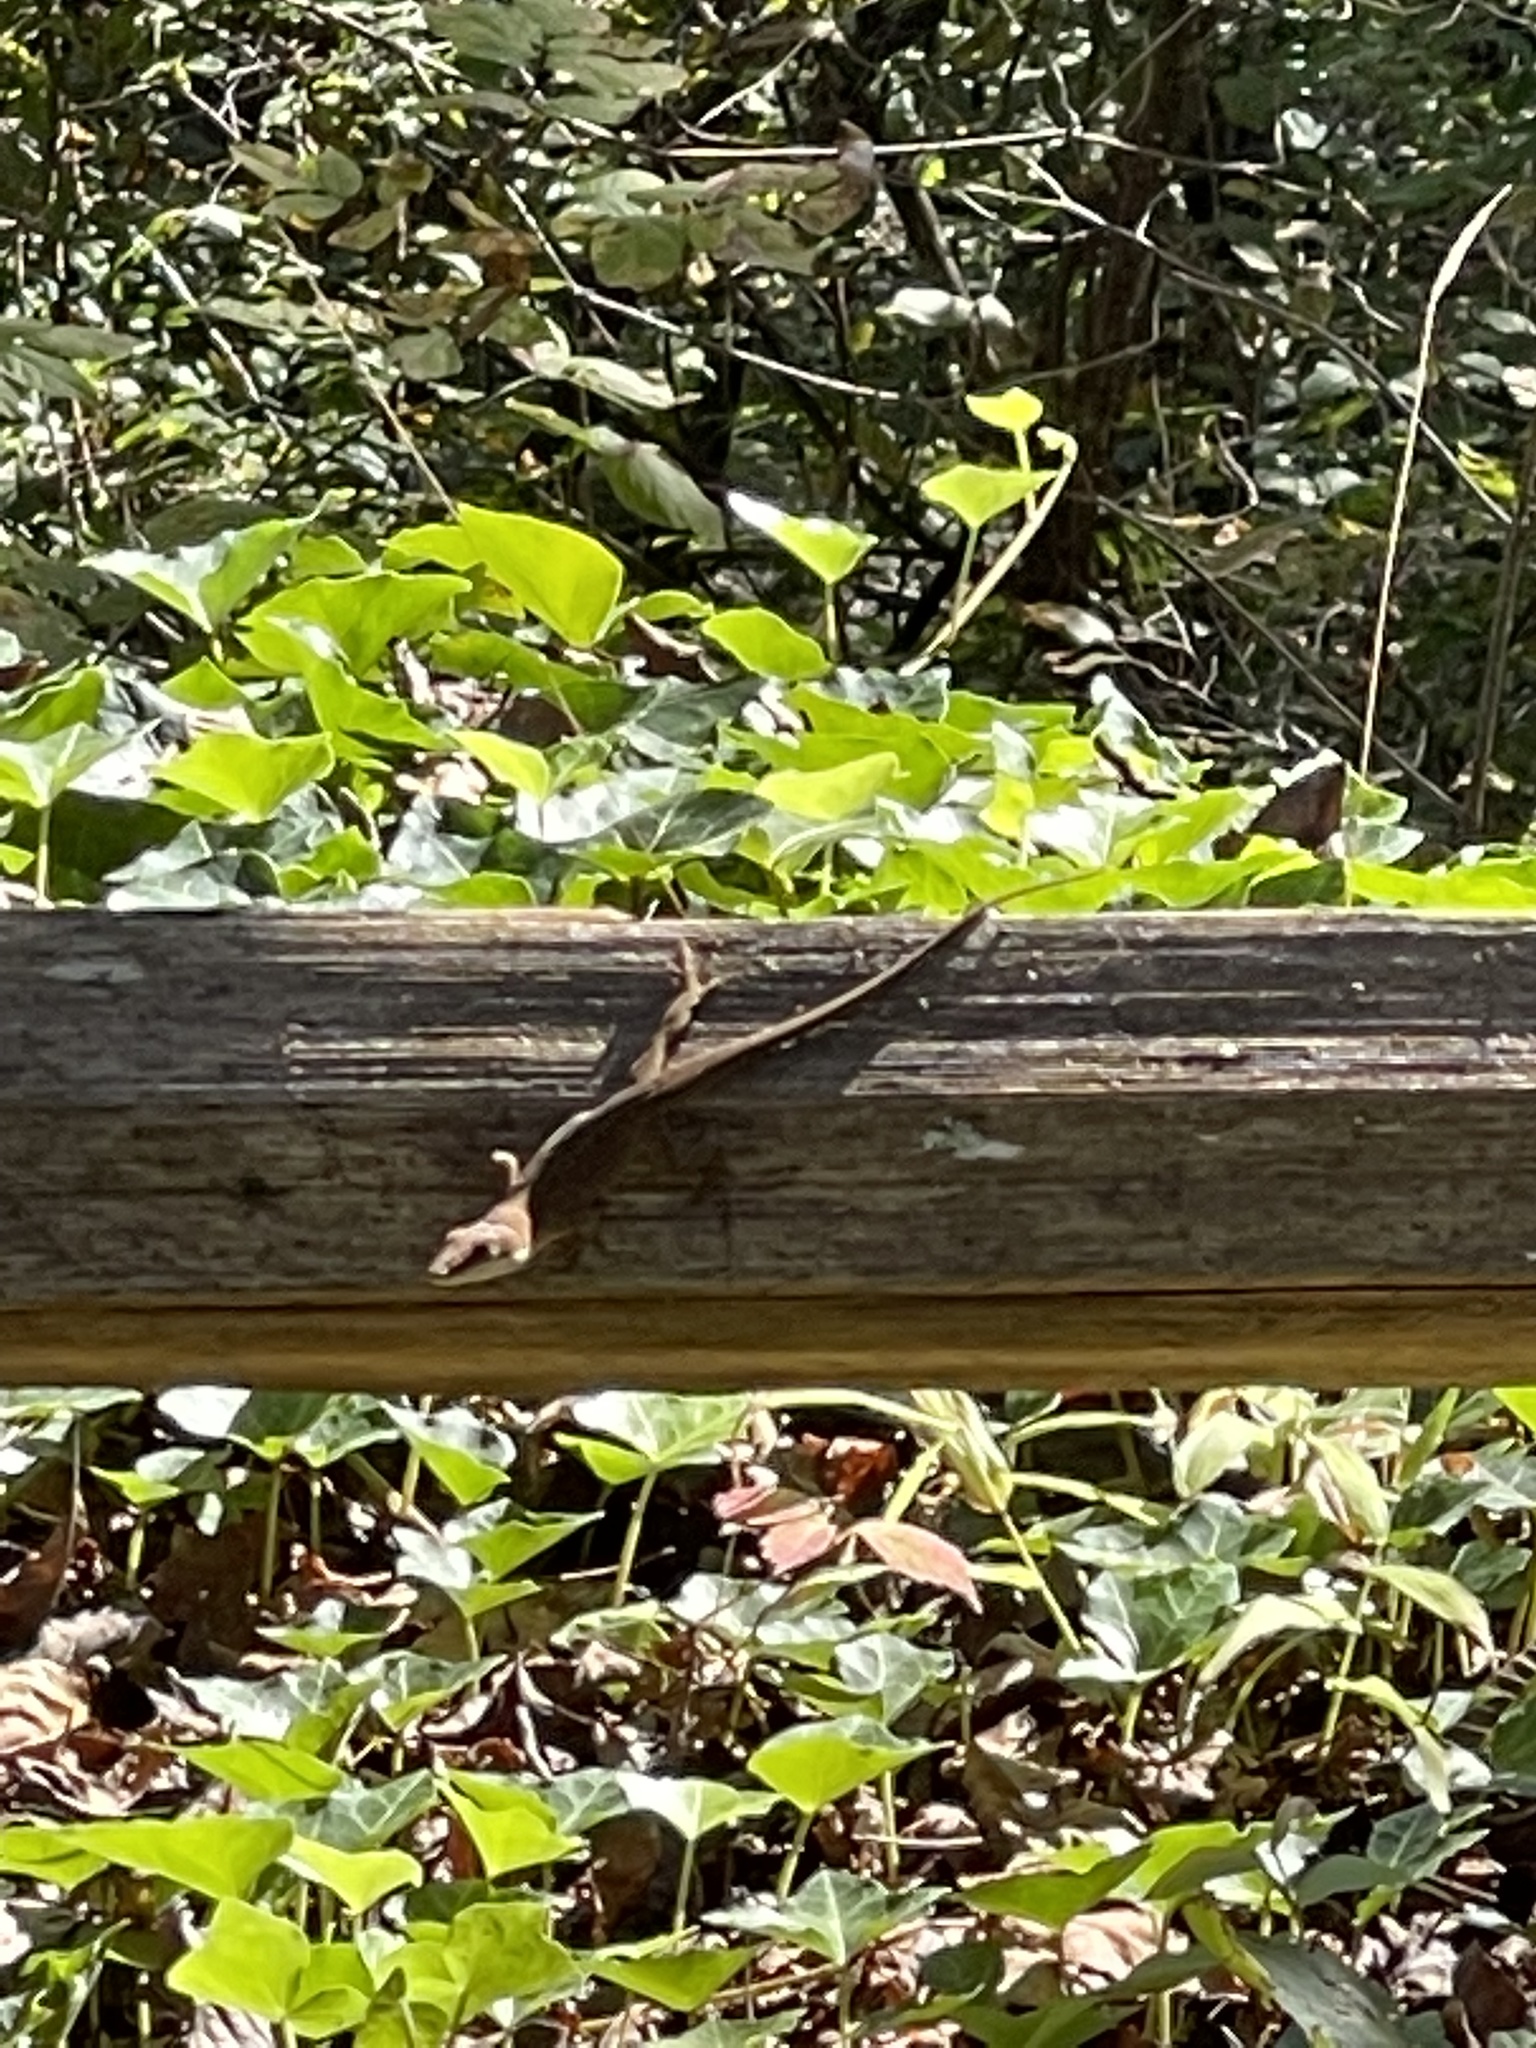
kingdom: Animalia
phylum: Chordata
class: Squamata
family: Dactyloidae
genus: Anolis
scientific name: Anolis carolinensis
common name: Green anole
